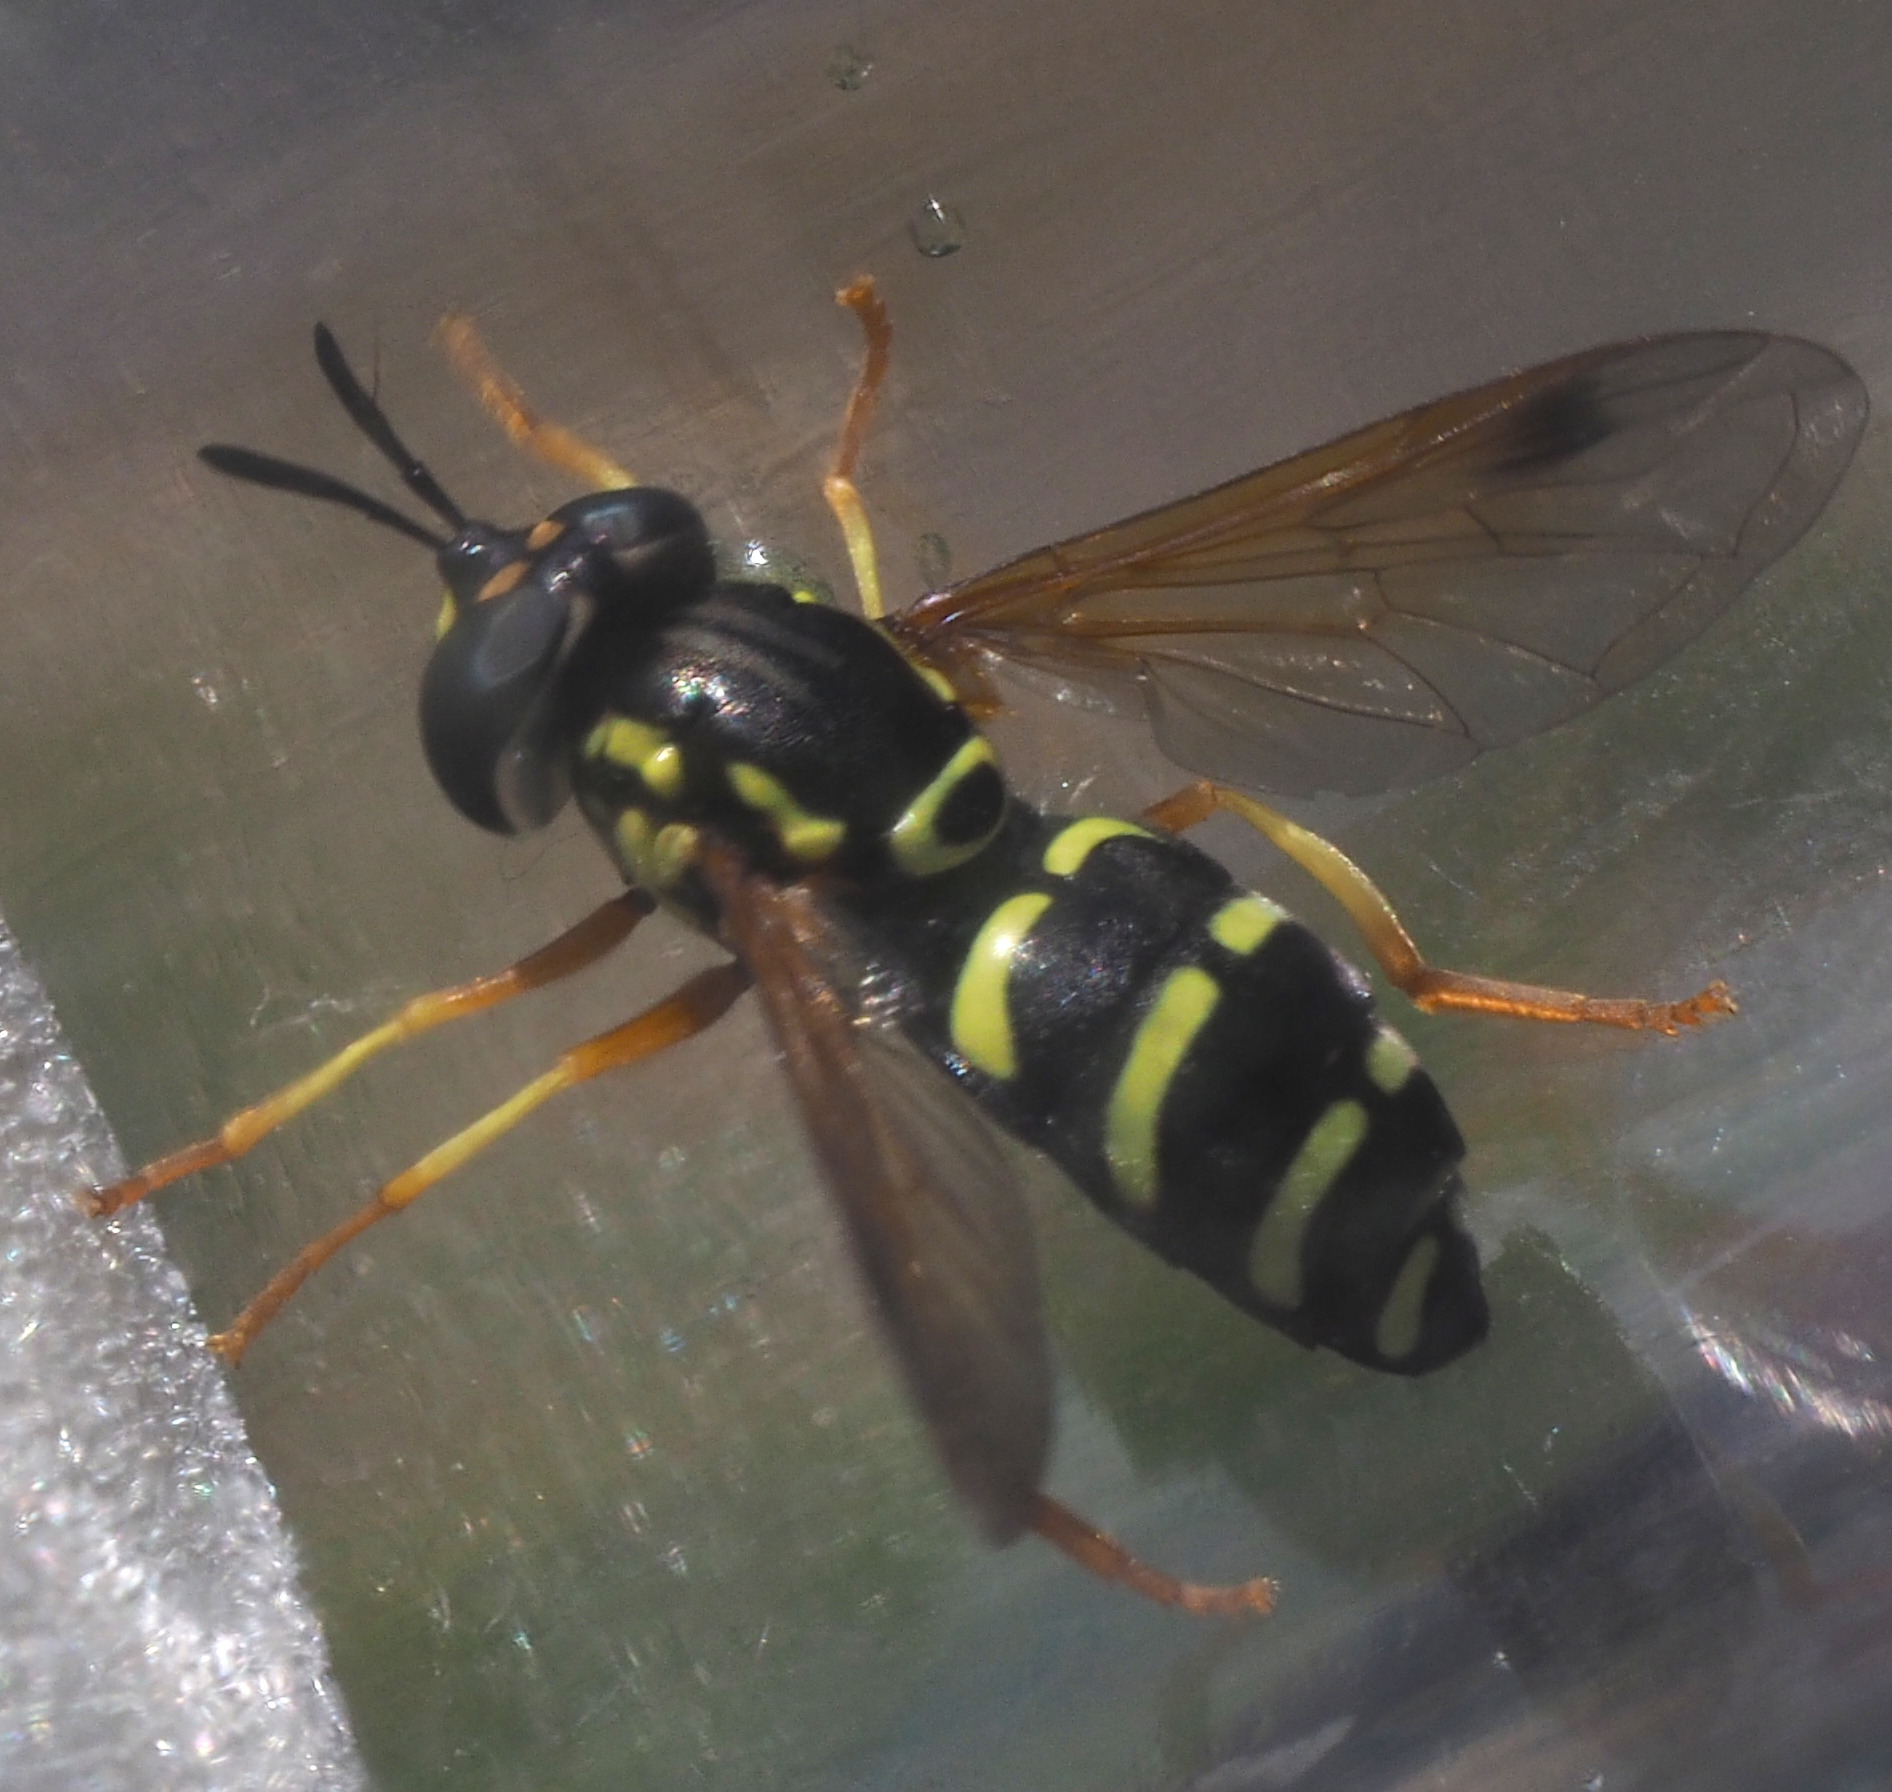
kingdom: Animalia
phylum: Arthropoda
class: Insecta
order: Diptera
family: Syrphidae
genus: Chrysotoxum
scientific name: Chrysotoxum festivum
